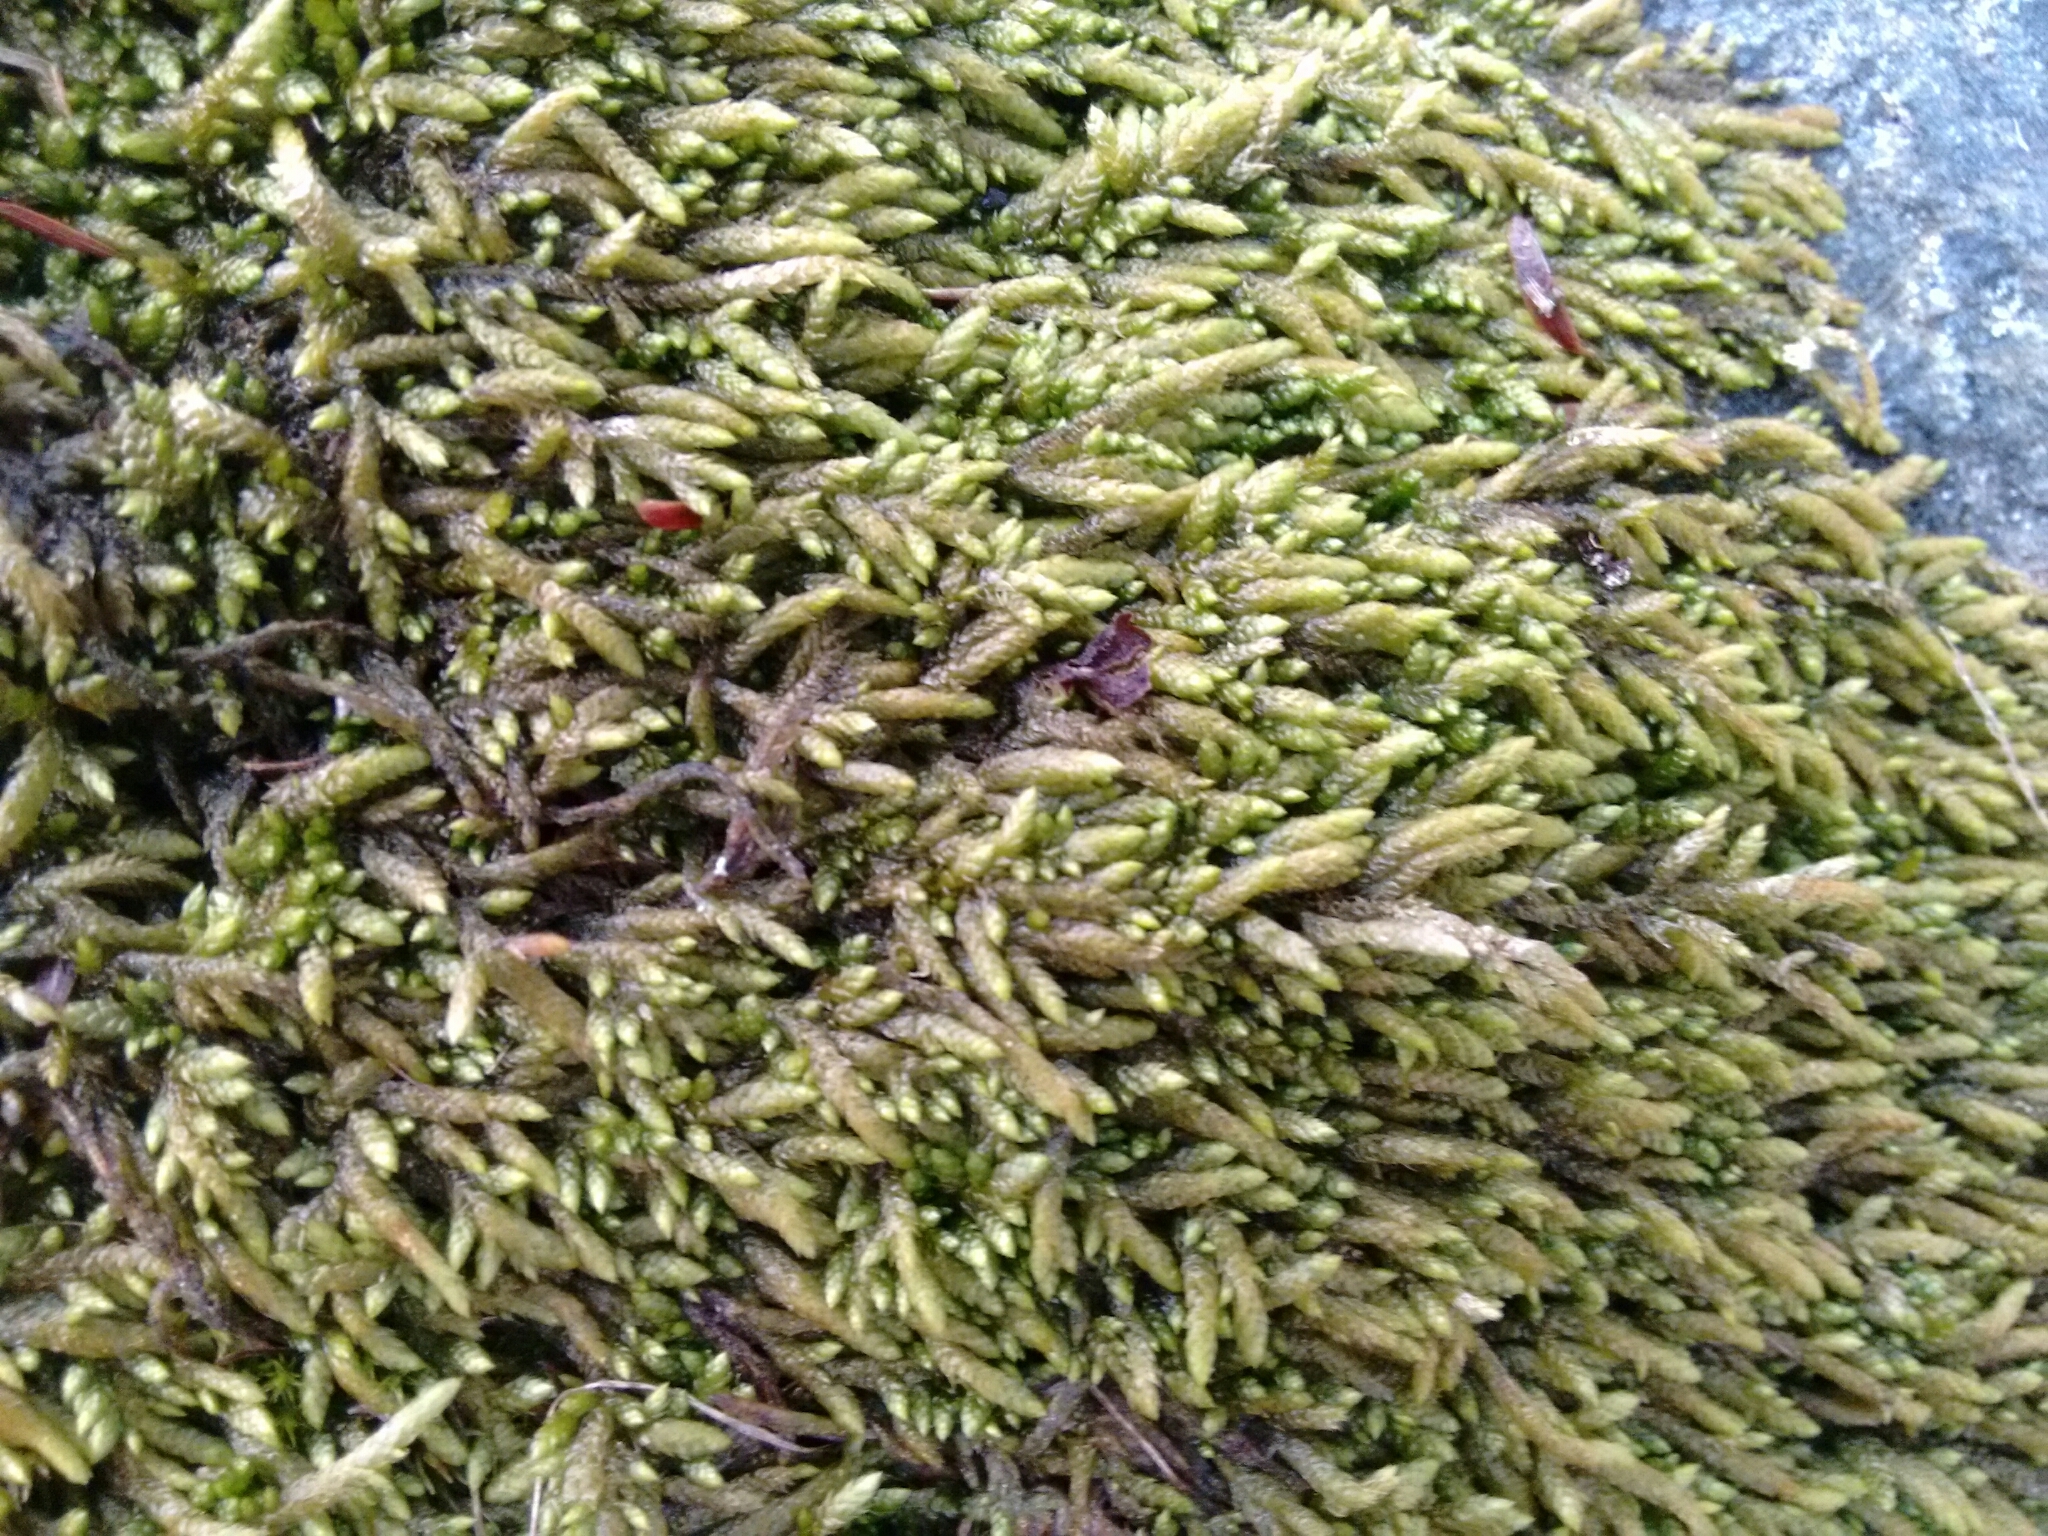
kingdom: Plantae
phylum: Bryophyta
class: Bryopsida
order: Hypnales
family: Entodontaceae
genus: Entodon
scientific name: Entodon seductrix
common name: Round-stemmed entodon moss
